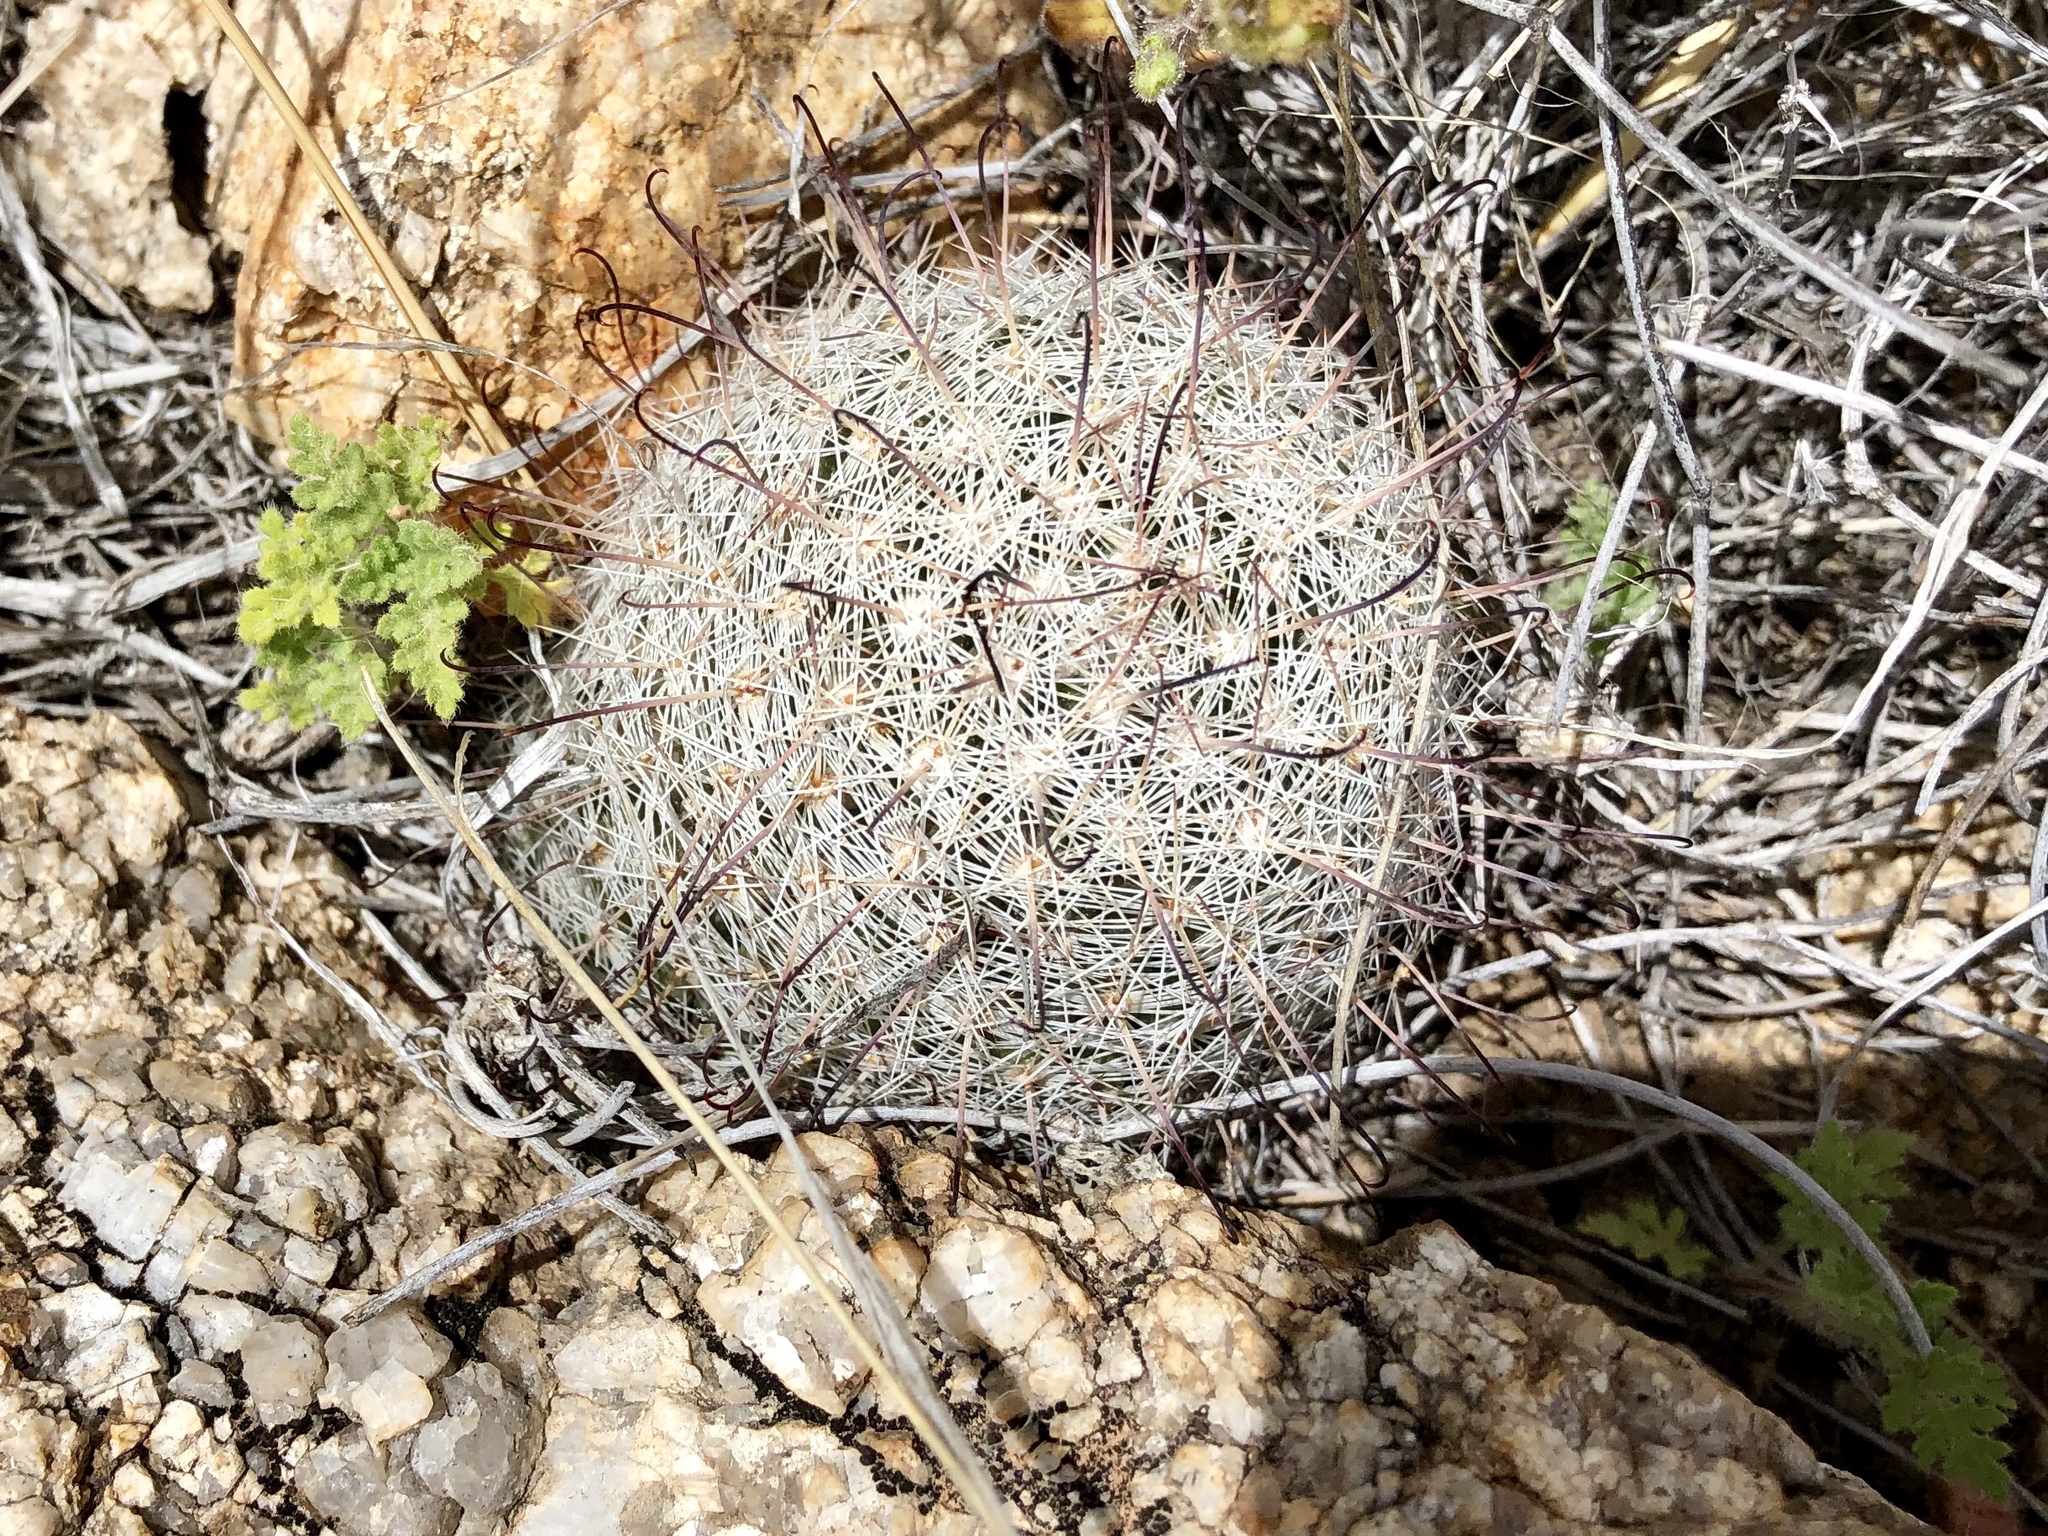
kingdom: Plantae
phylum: Tracheophyta
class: Magnoliopsida
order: Caryophyllales
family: Cactaceae
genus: Cochemiea
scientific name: Cochemiea grahamii
